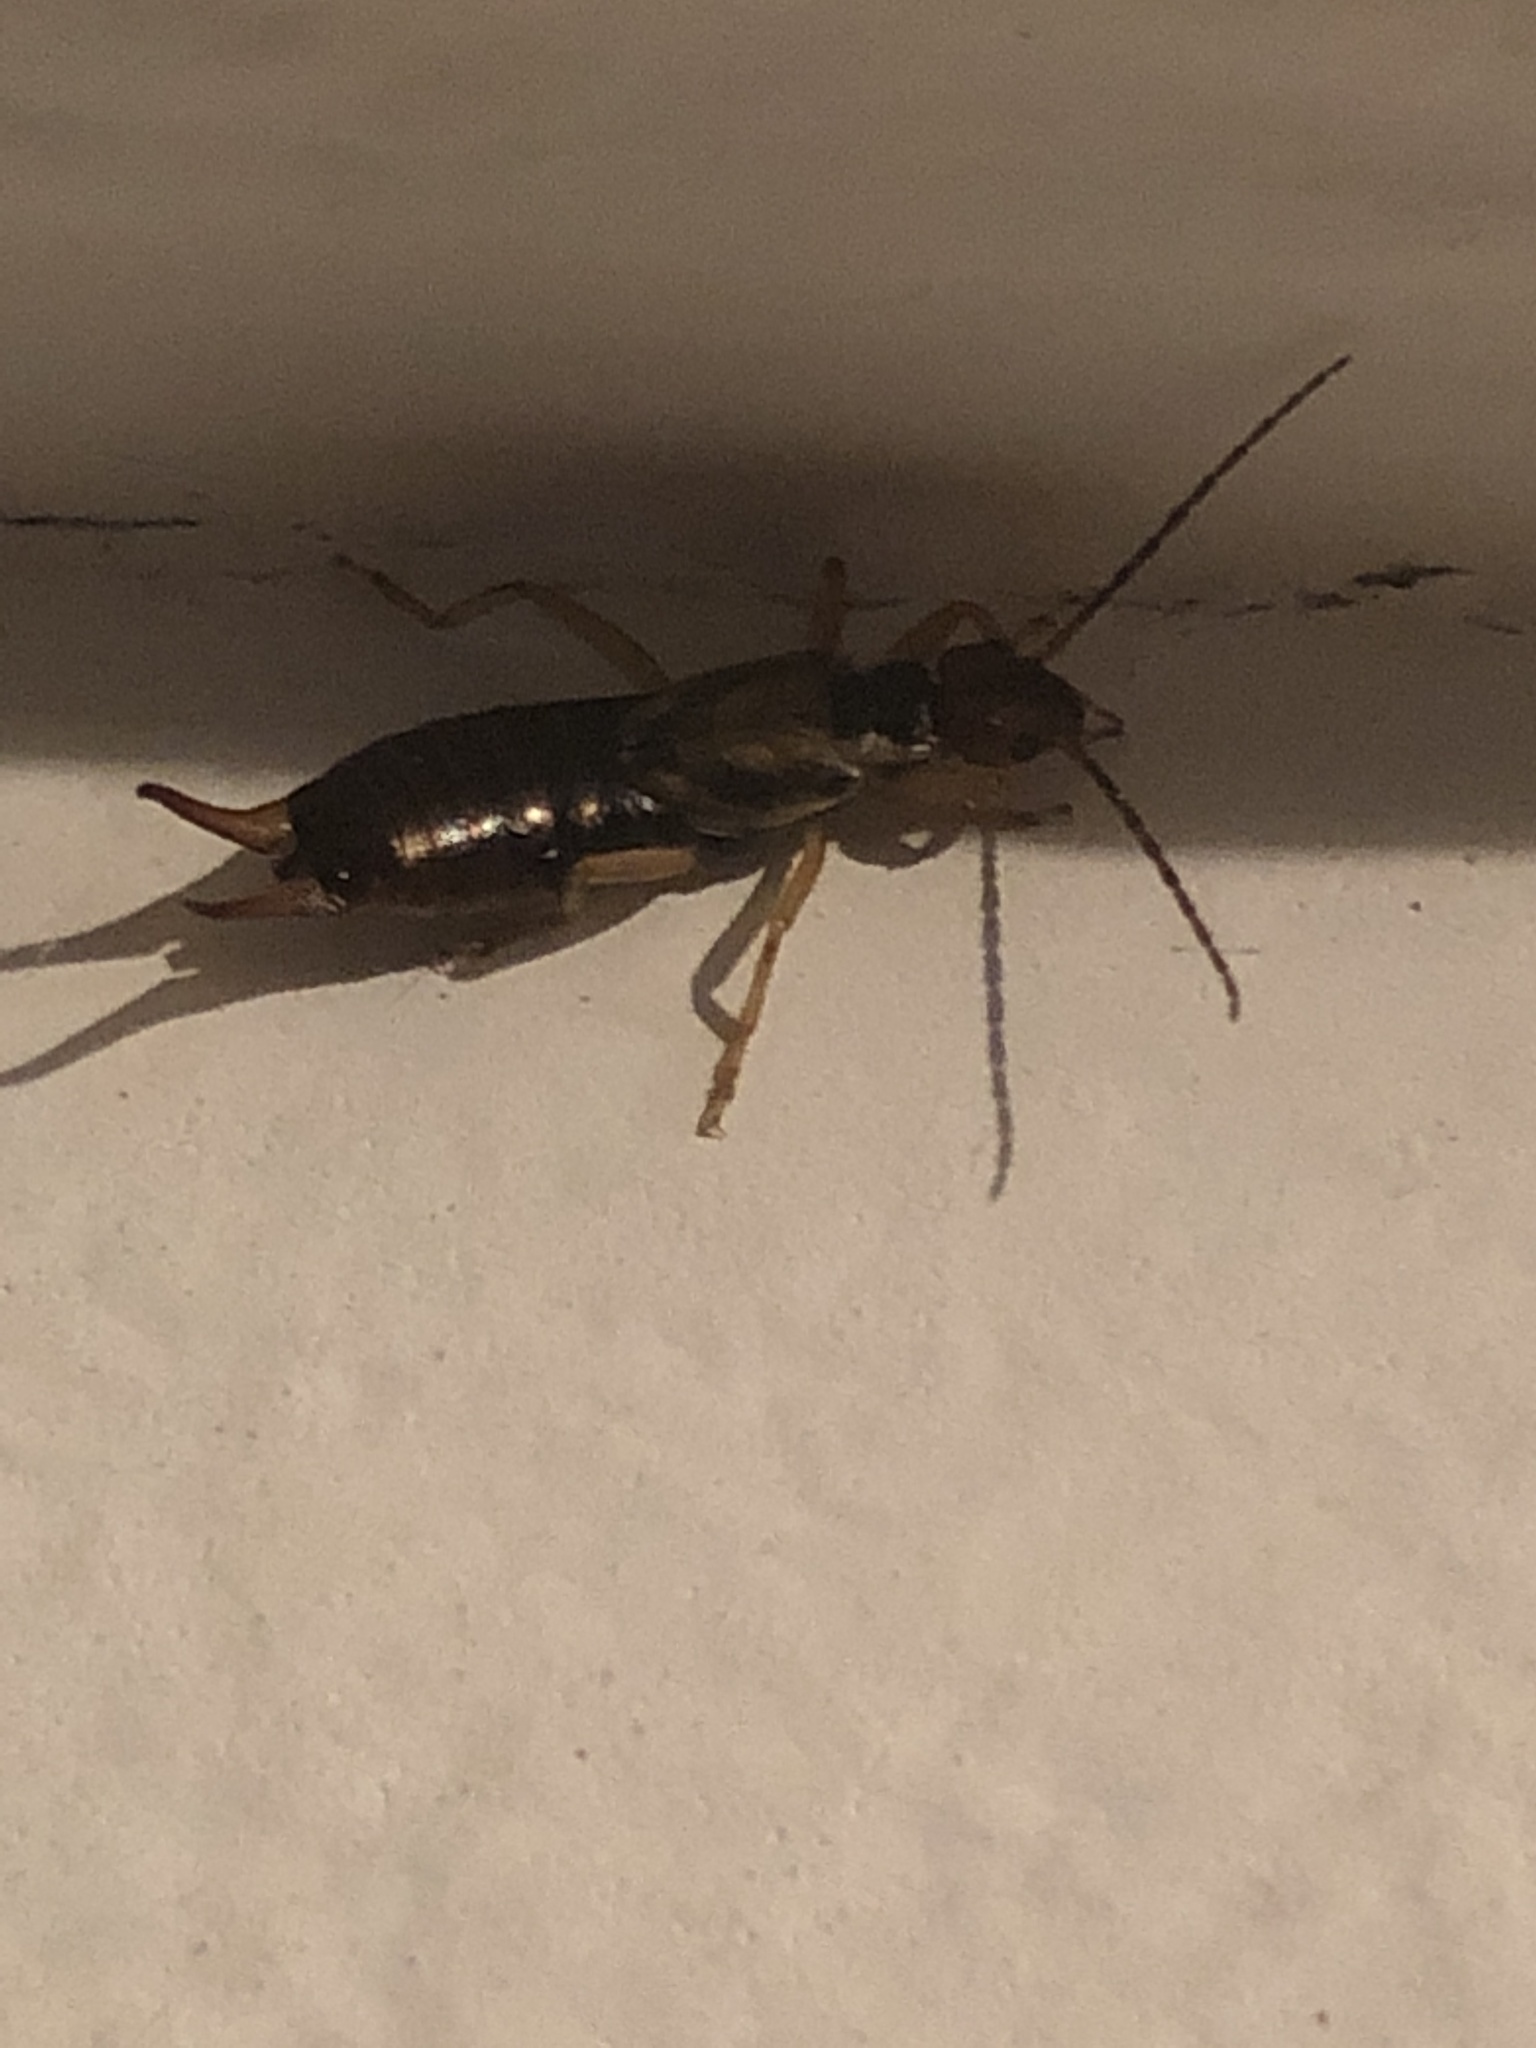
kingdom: Animalia
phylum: Arthropoda
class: Insecta
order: Dermaptera
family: Forficulidae
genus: Forficula
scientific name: Forficula
